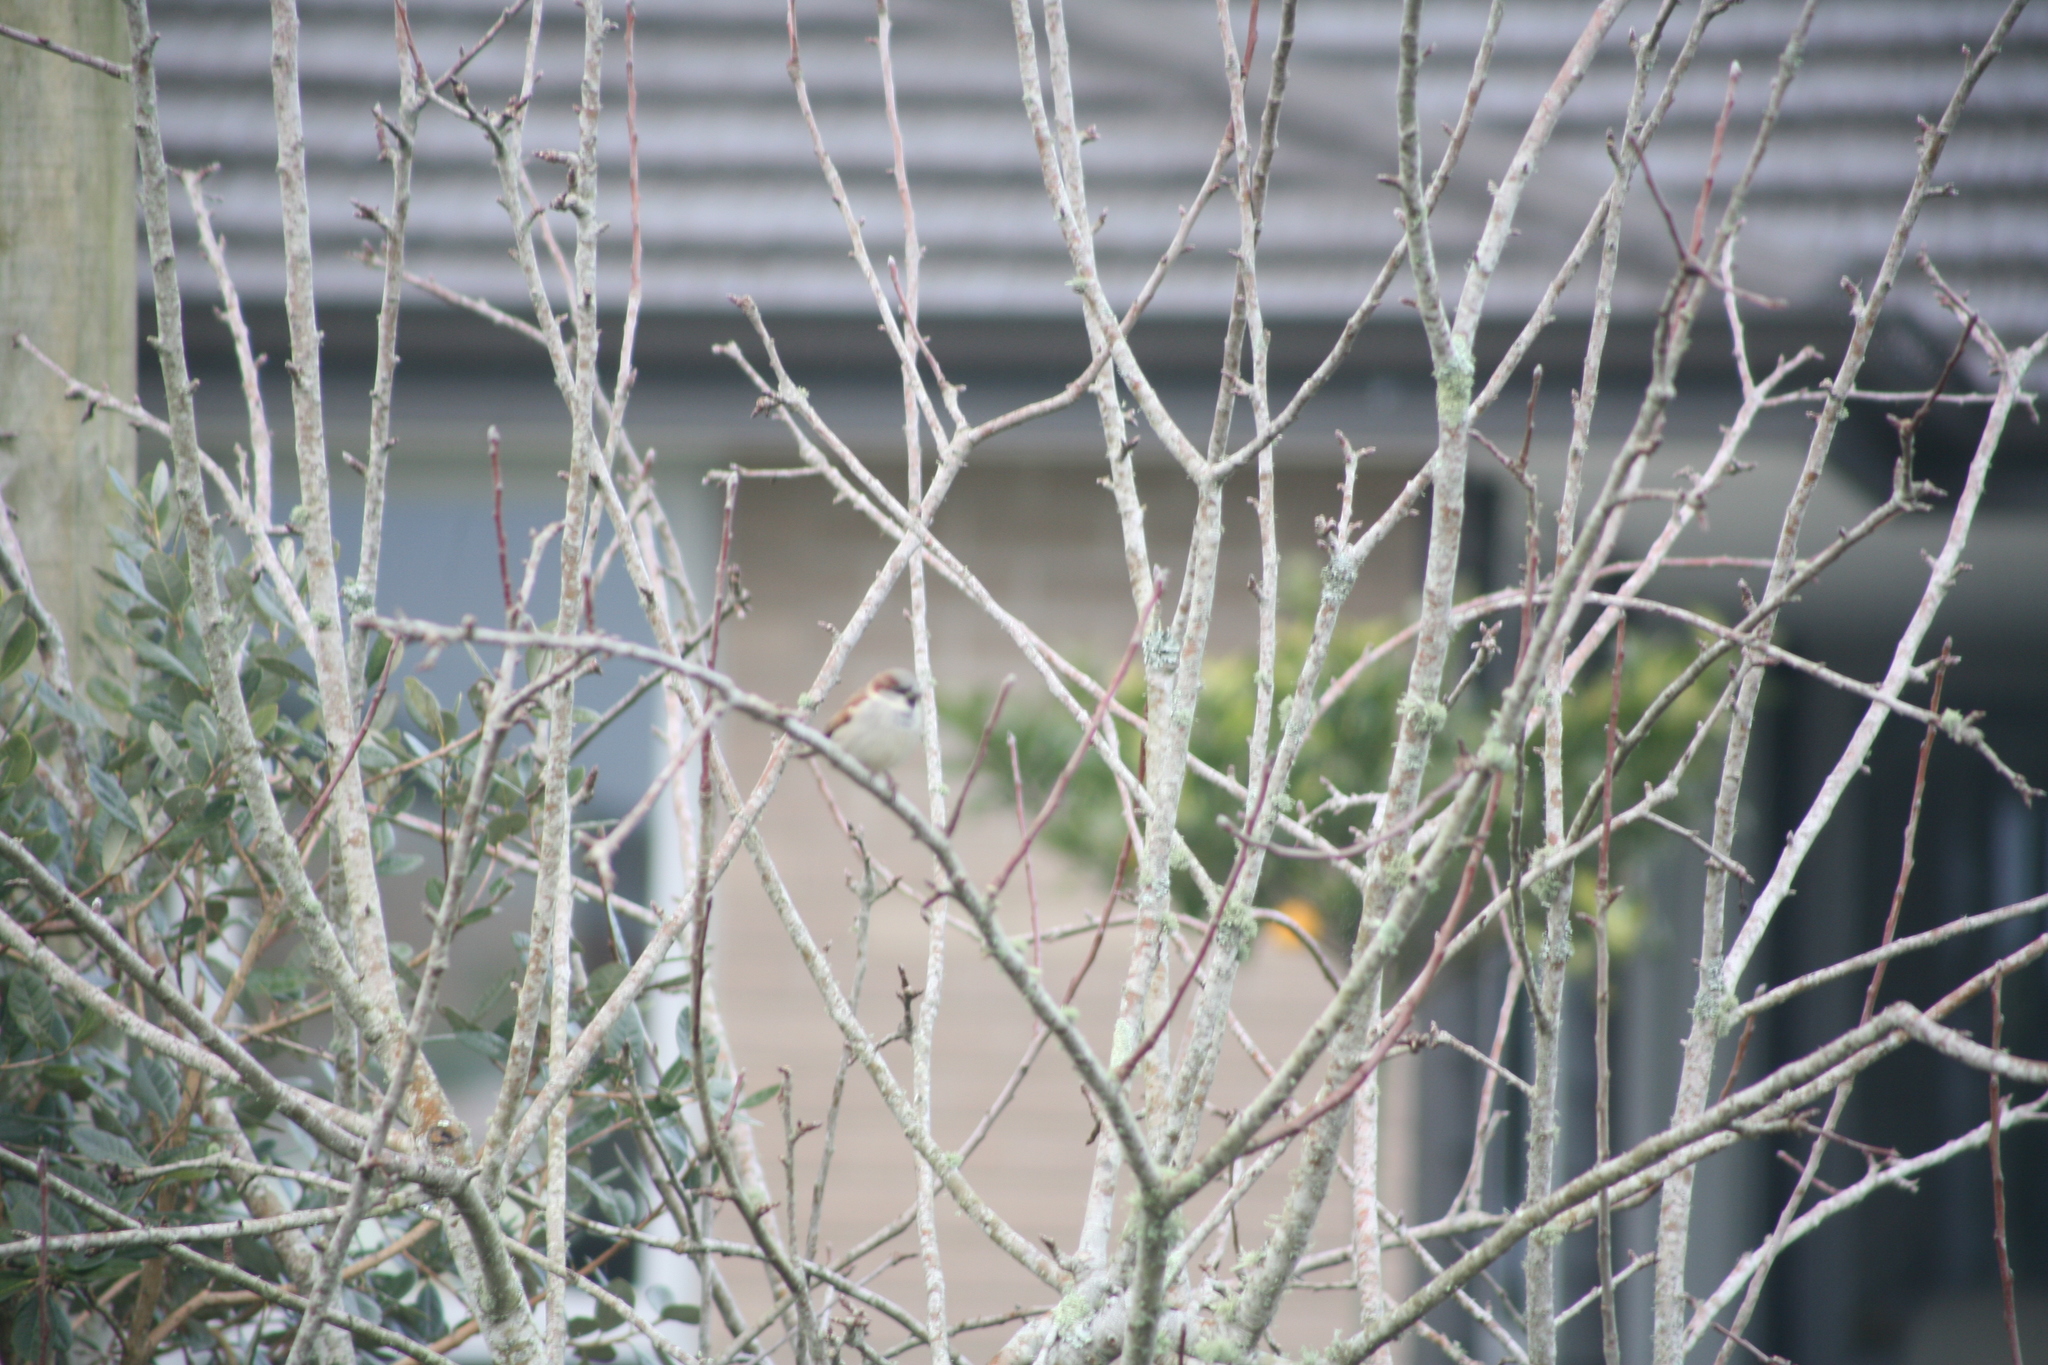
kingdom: Animalia
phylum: Chordata
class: Aves
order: Passeriformes
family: Passeridae
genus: Passer
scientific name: Passer domesticus
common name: House sparrow
